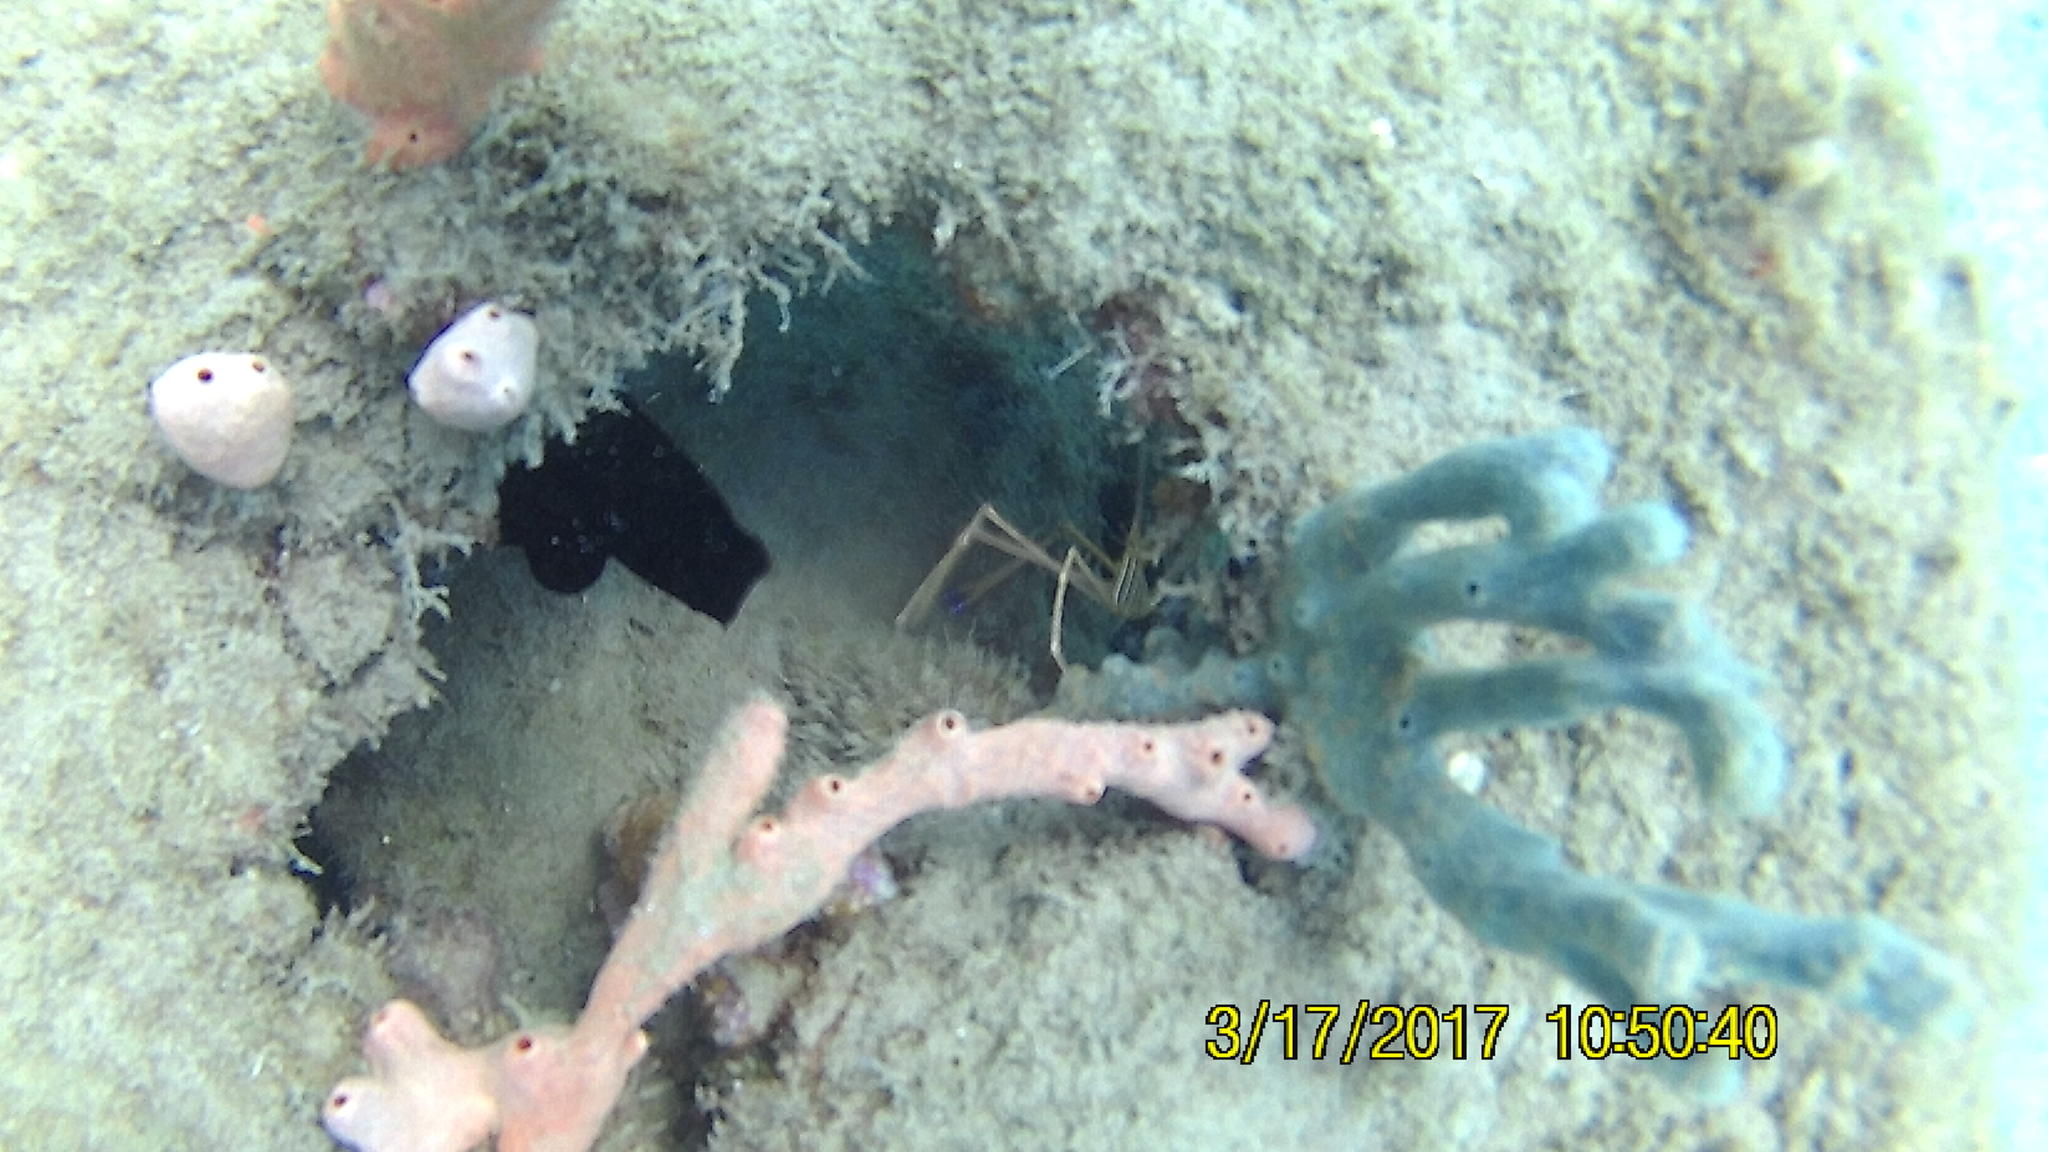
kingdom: Animalia
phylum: Arthropoda
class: Malacostraca
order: Decapoda
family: Inachoididae
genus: Stenorhynchus
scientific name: Stenorhynchus seticornis
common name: Arrow crab
